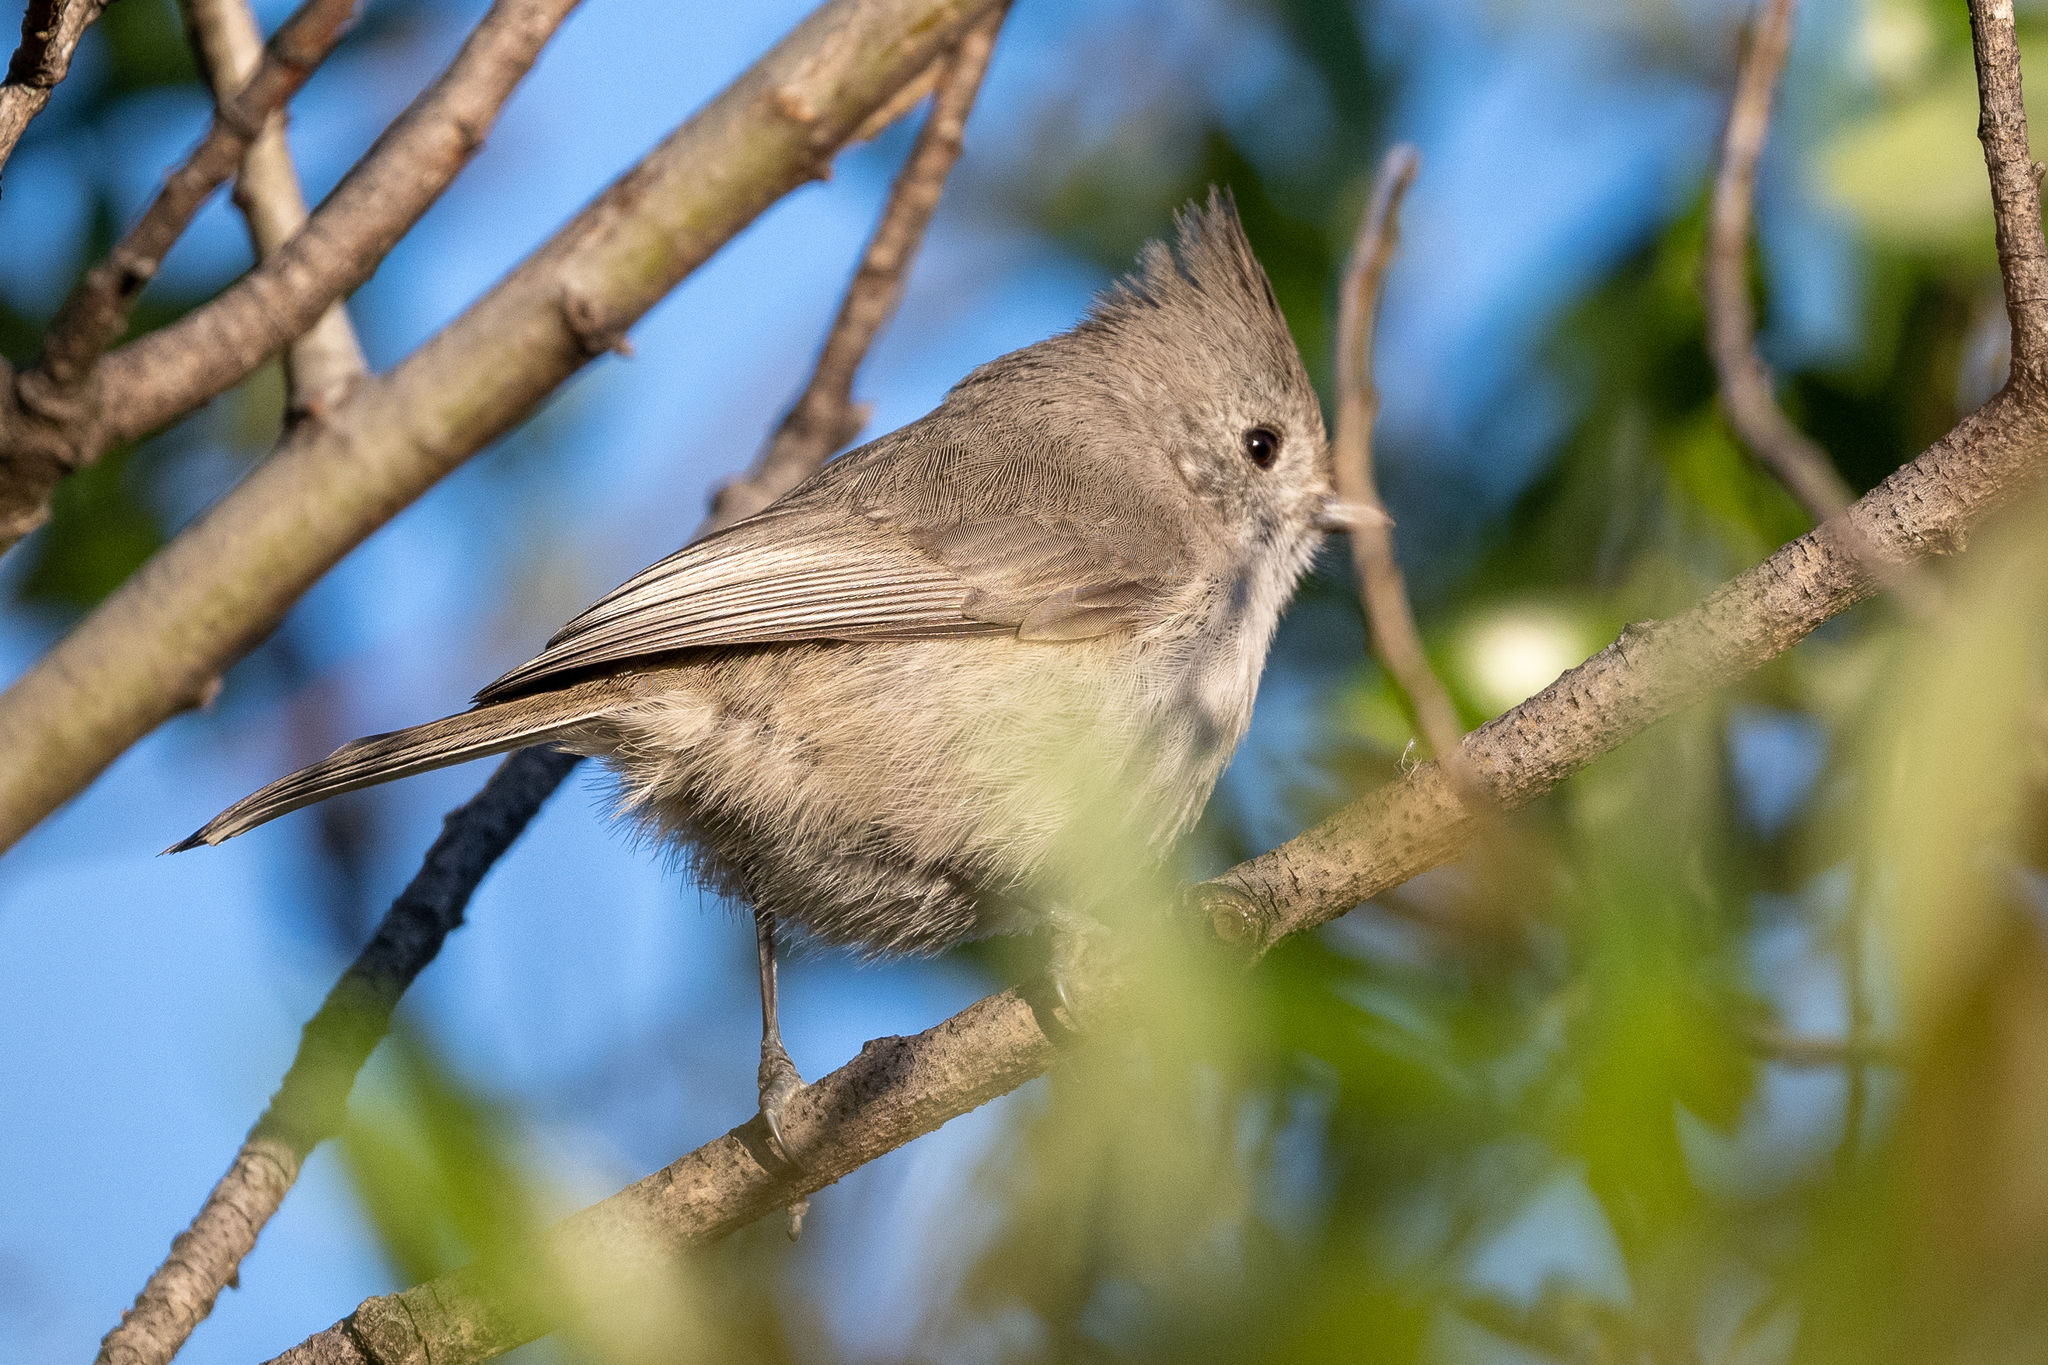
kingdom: Animalia
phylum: Chordata
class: Aves
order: Passeriformes
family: Paridae
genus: Baeolophus
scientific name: Baeolophus inornatus
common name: Oak titmouse
